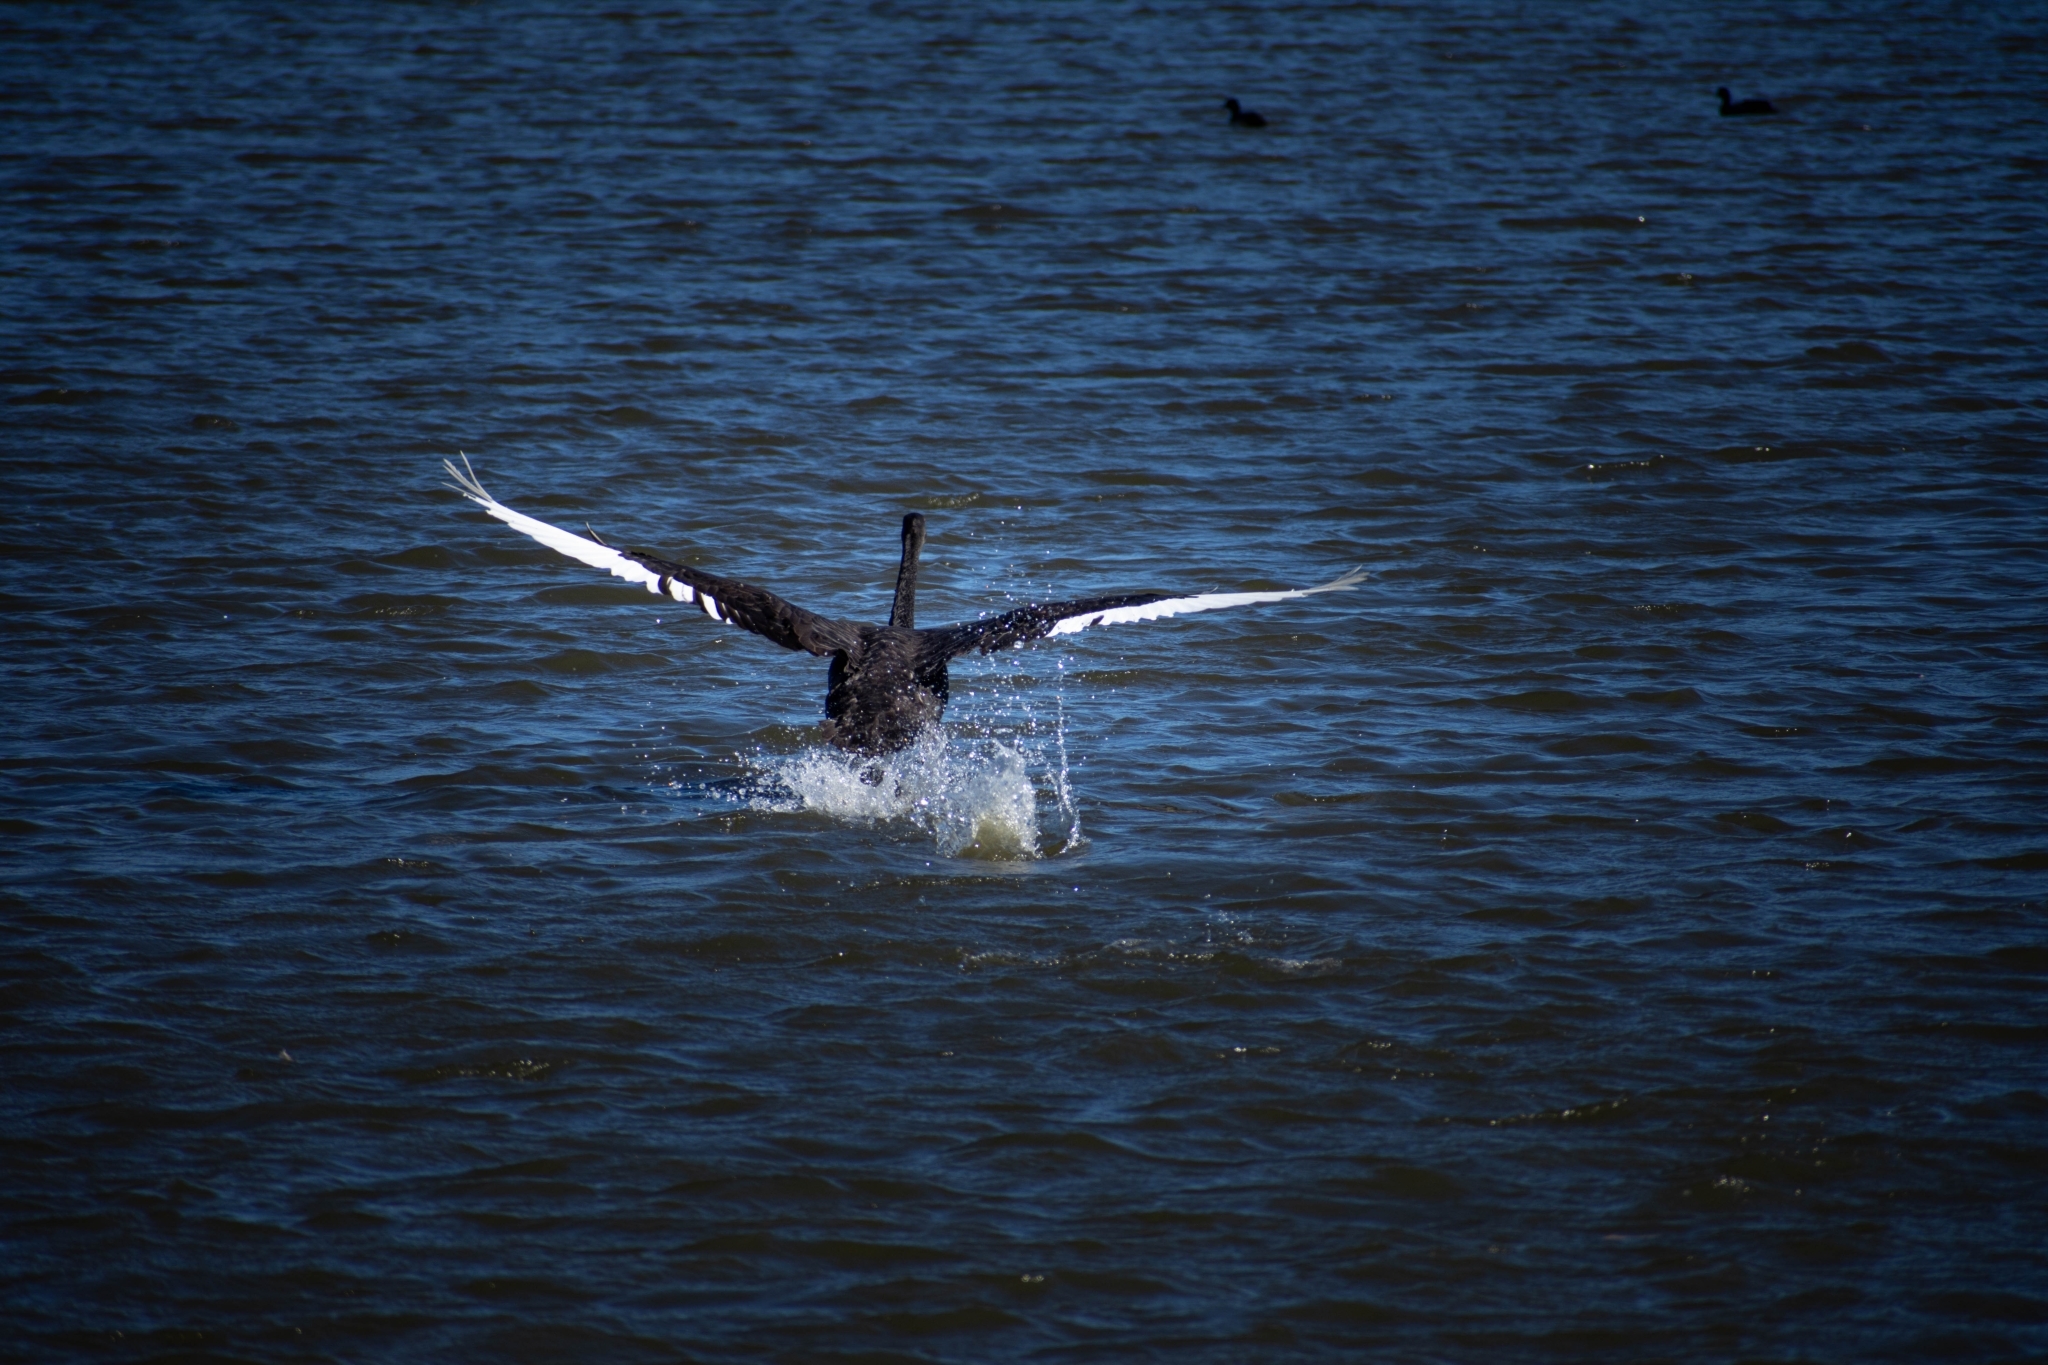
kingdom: Animalia
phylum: Chordata
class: Aves
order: Anseriformes
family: Anatidae
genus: Cygnus
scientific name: Cygnus atratus
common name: Black swan
